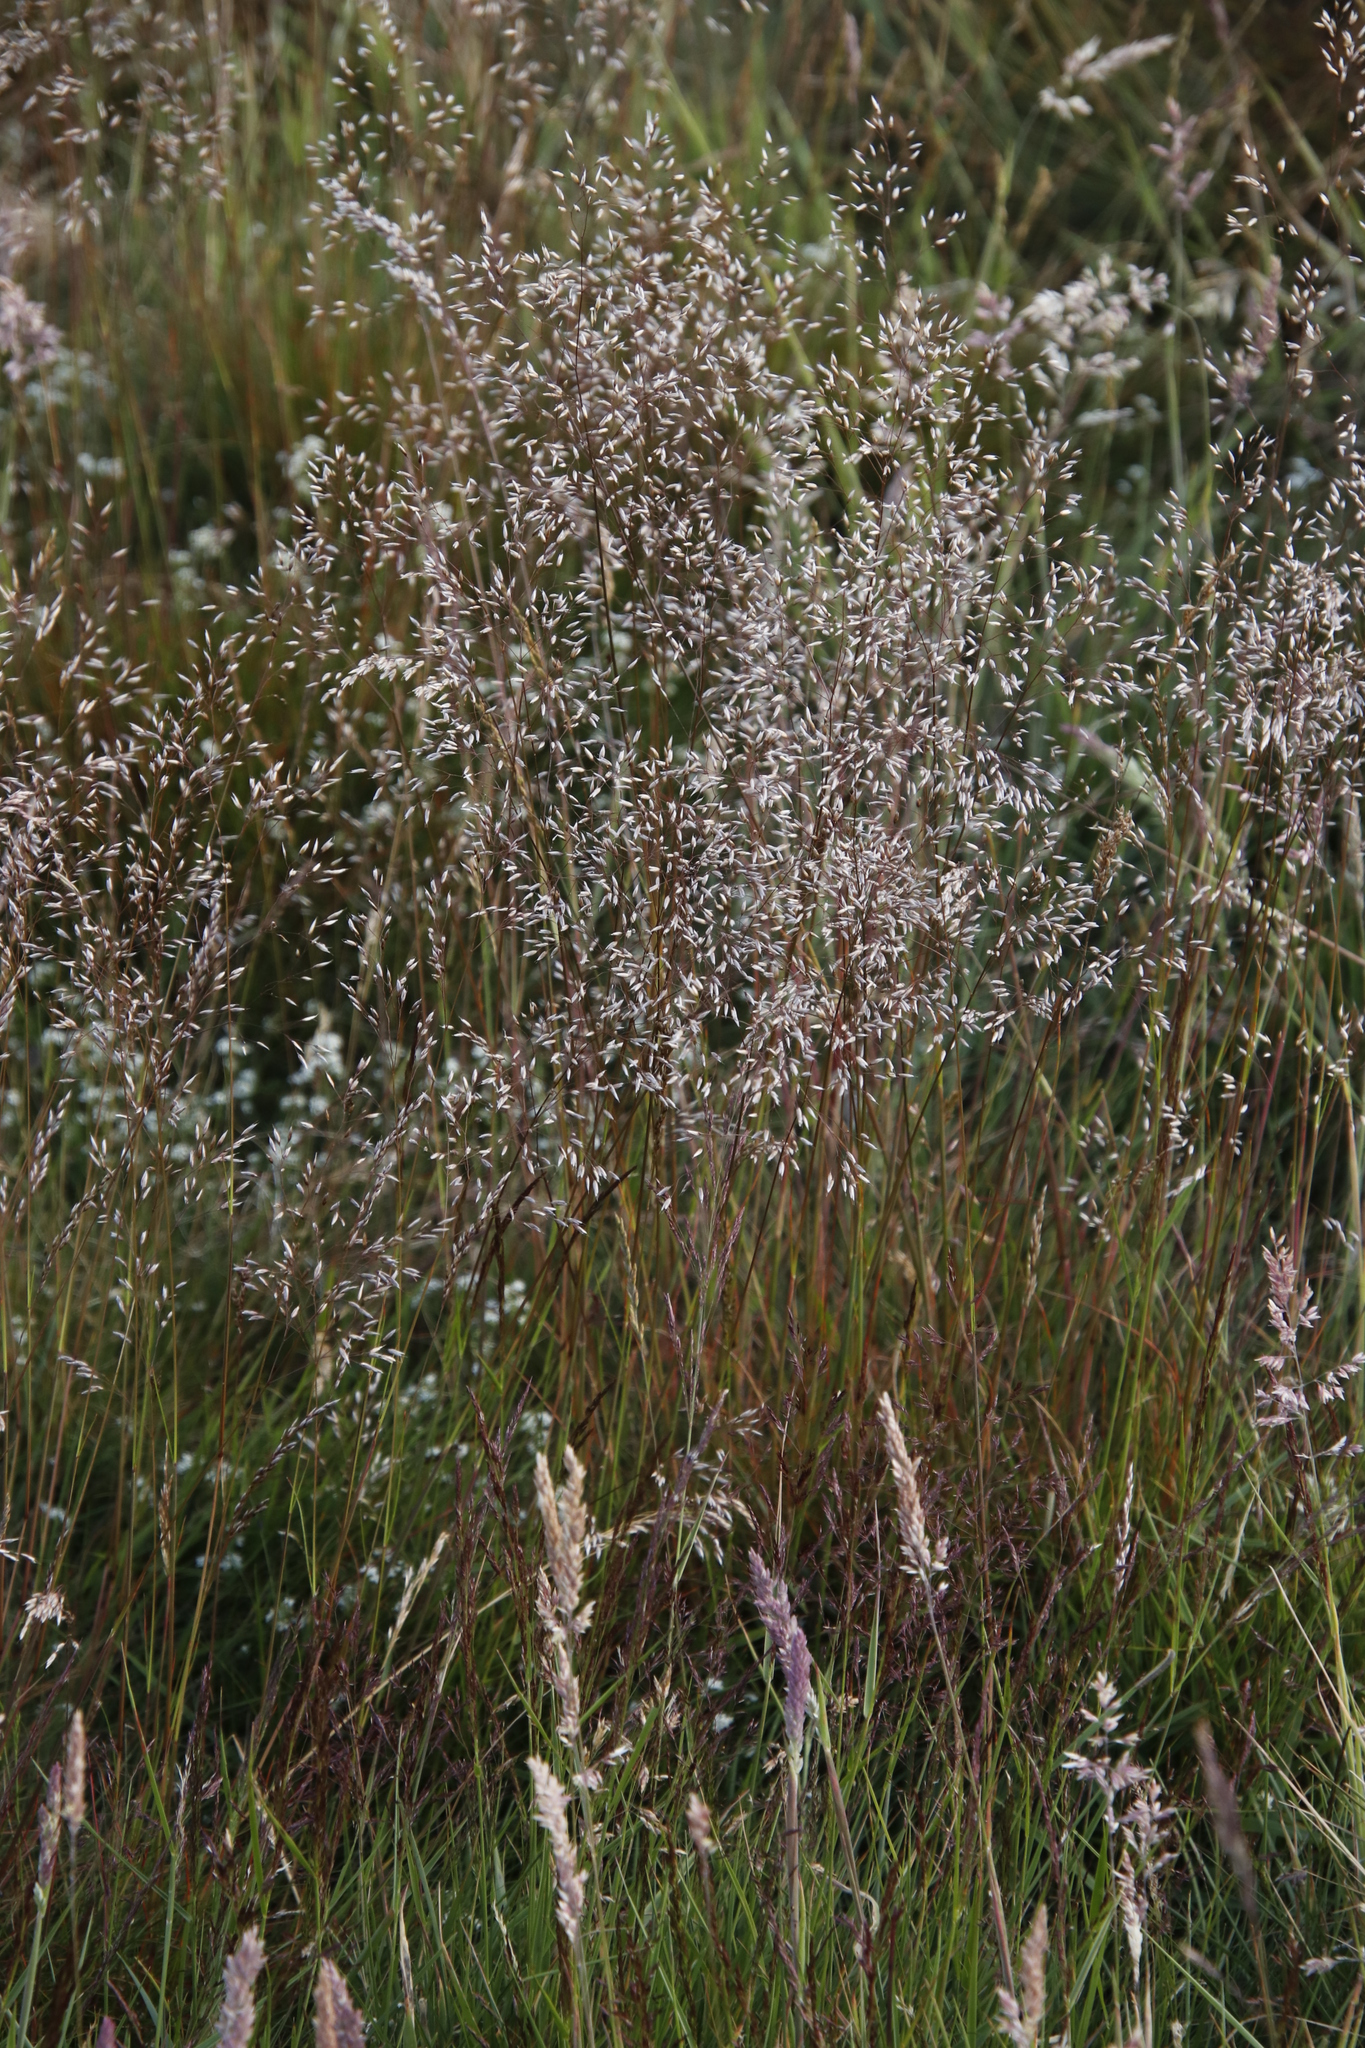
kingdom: Plantae
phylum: Tracheophyta
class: Liliopsida
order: Poales
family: Poaceae
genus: Agrostis
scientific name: Agrostis capillaris
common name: Colonial bentgrass
